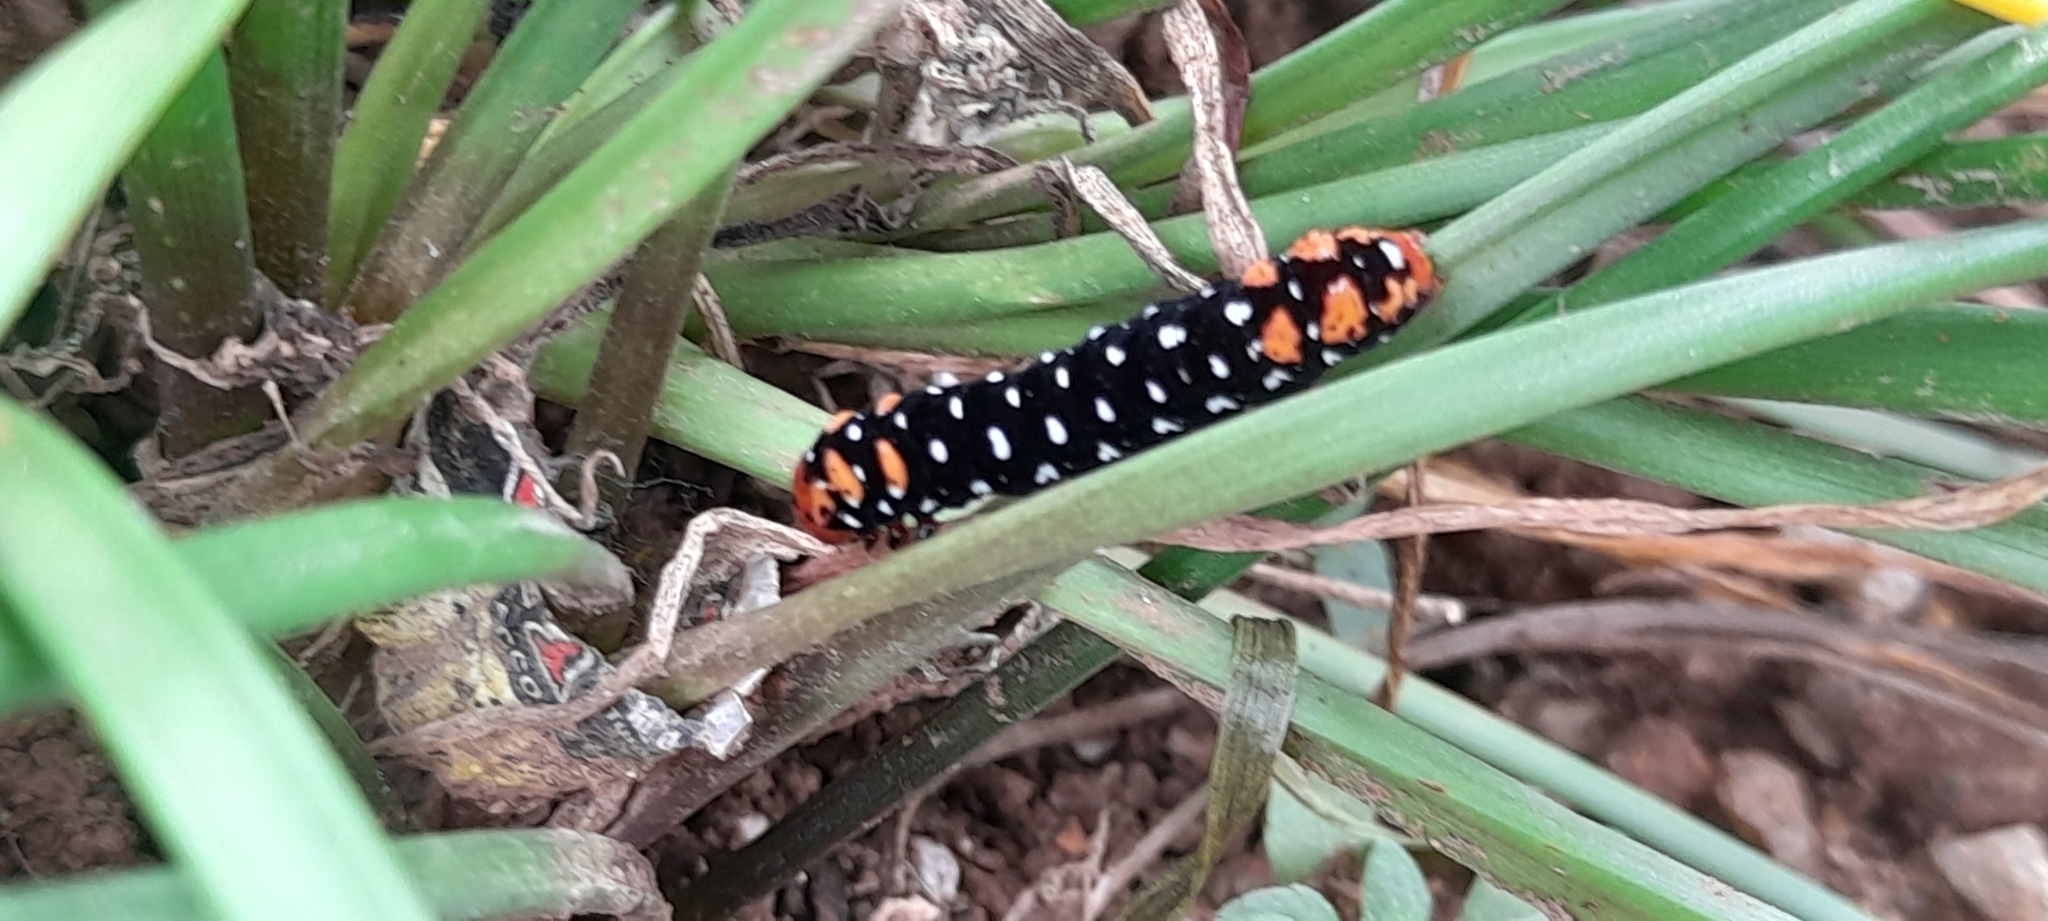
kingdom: Animalia
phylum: Arthropoda
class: Insecta
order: Lepidoptera
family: Noctuidae
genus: Polytela
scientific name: Polytela gloriosae
